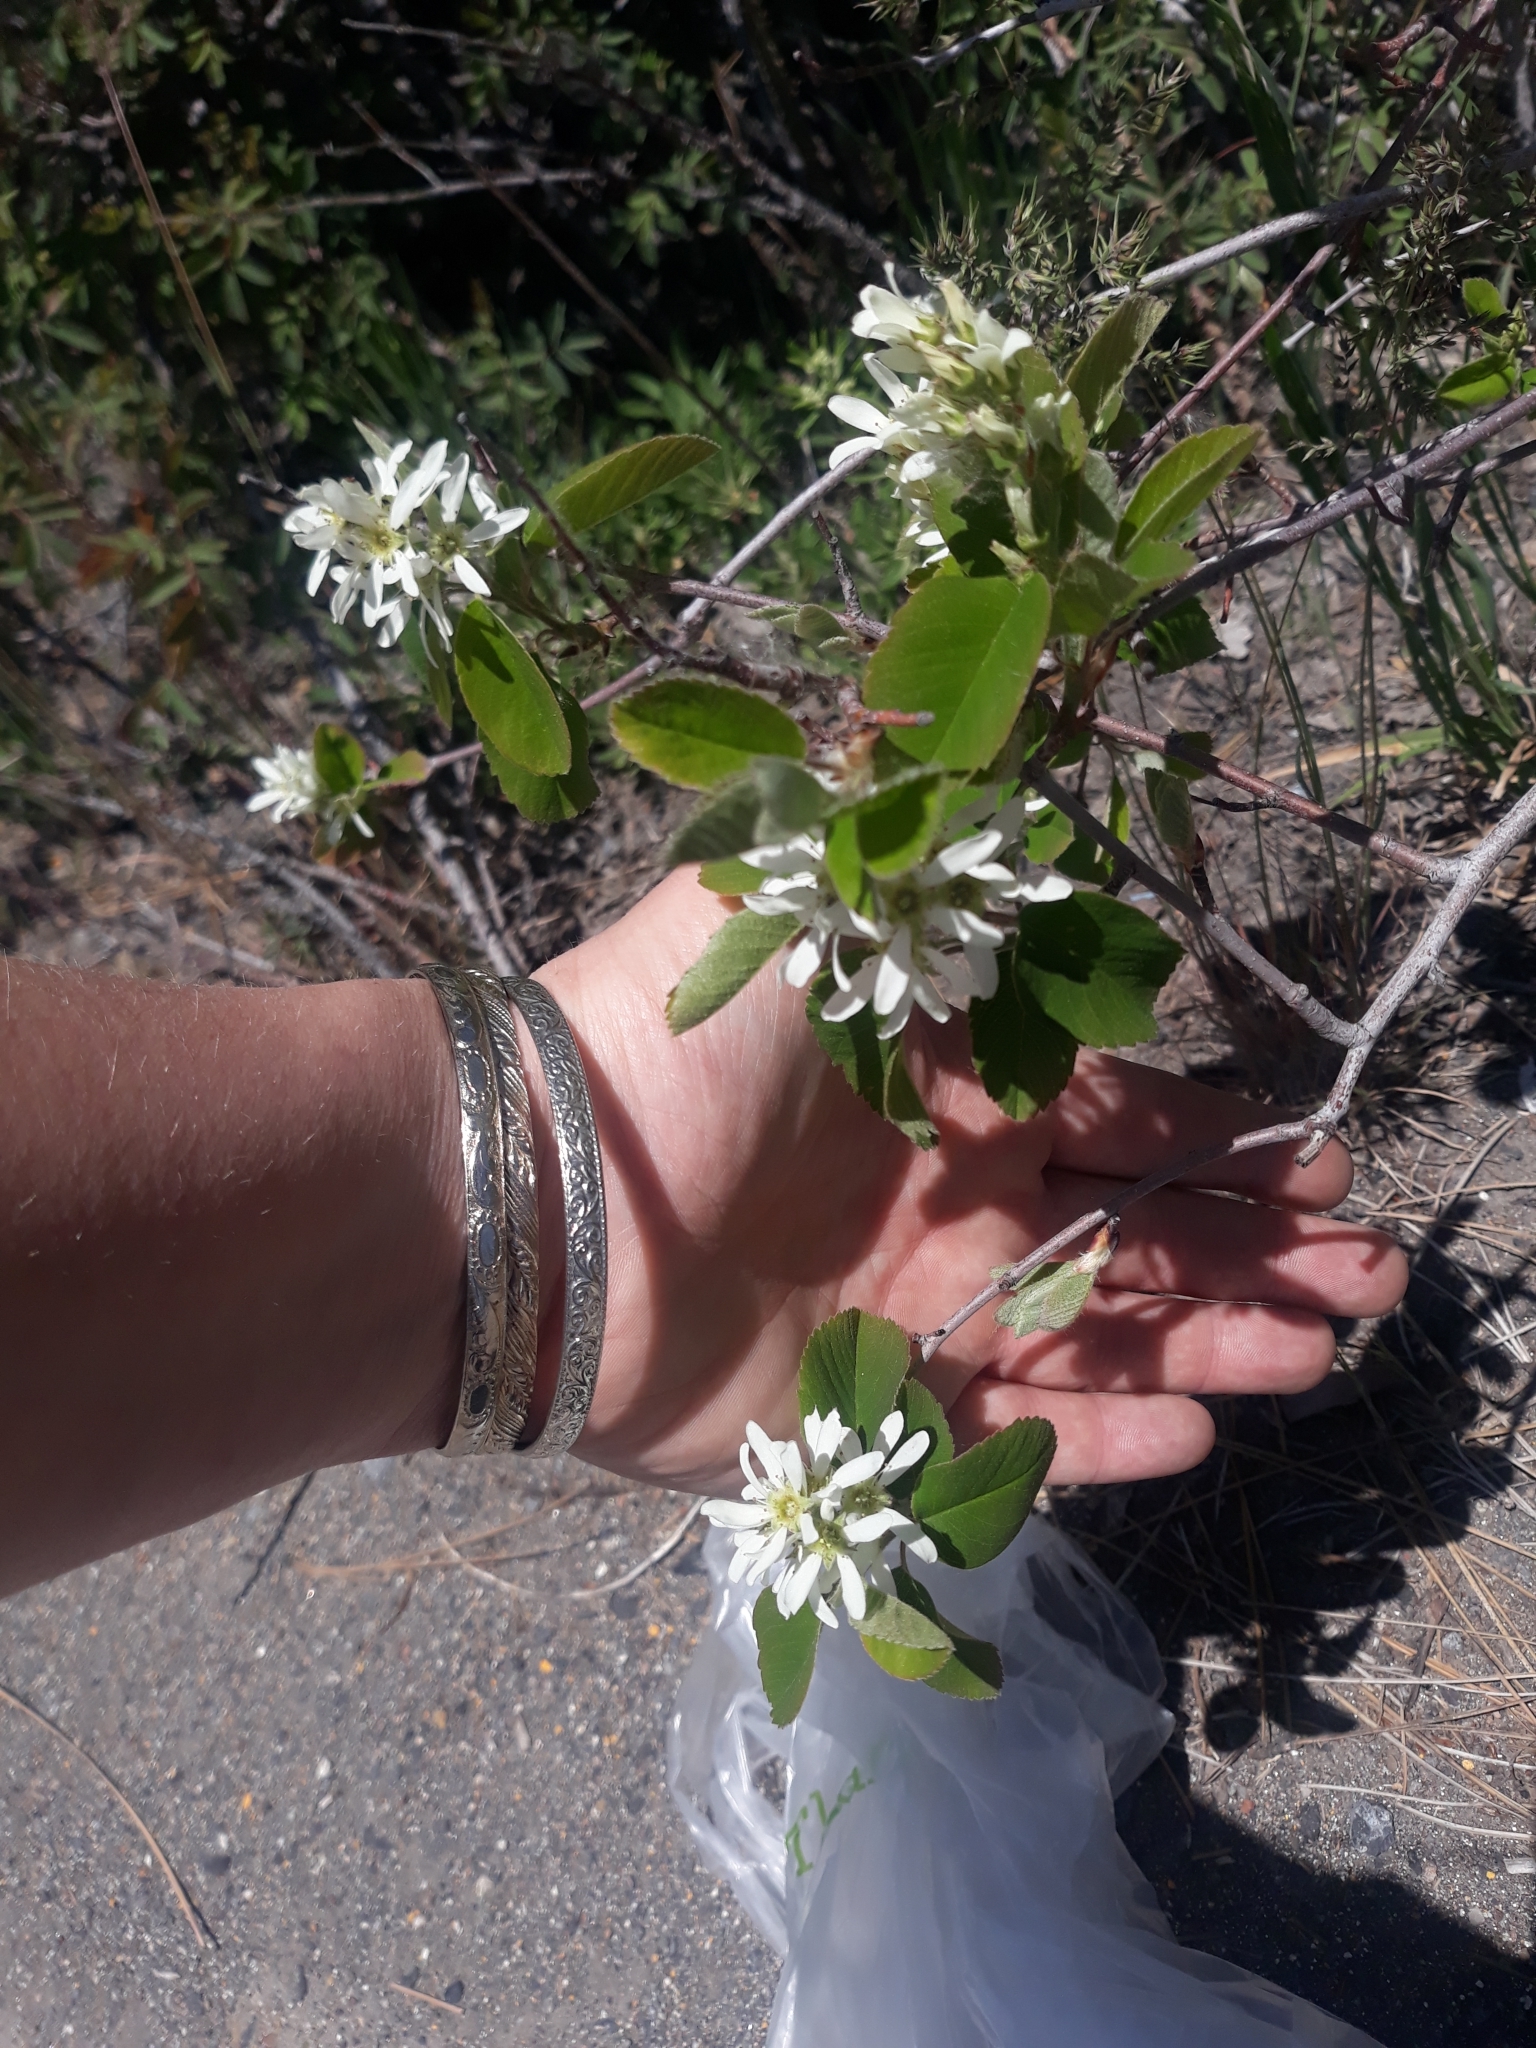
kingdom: Plantae
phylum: Tracheophyta
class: Magnoliopsida
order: Rosales
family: Rosaceae
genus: Amelanchier
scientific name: Amelanchier utahensis
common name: Utah serviceberry
